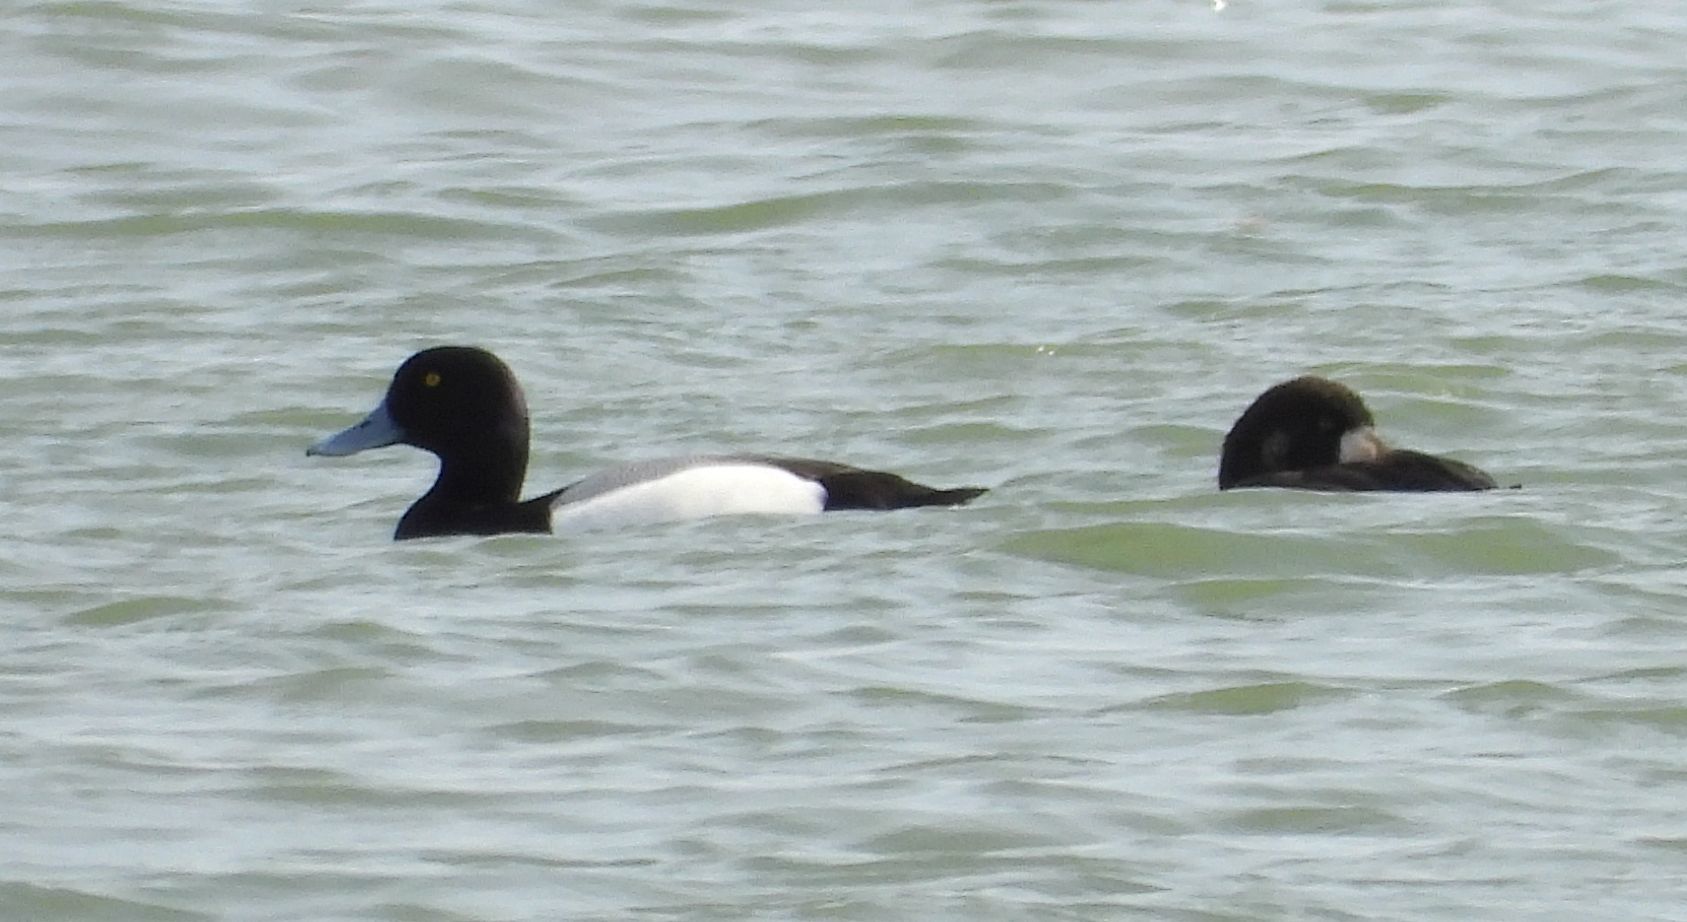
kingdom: Animalia
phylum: Chordata
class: Aves
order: Anseriformes
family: Anatidae
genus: Aythya
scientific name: Aythya marila
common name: Greater scaup
